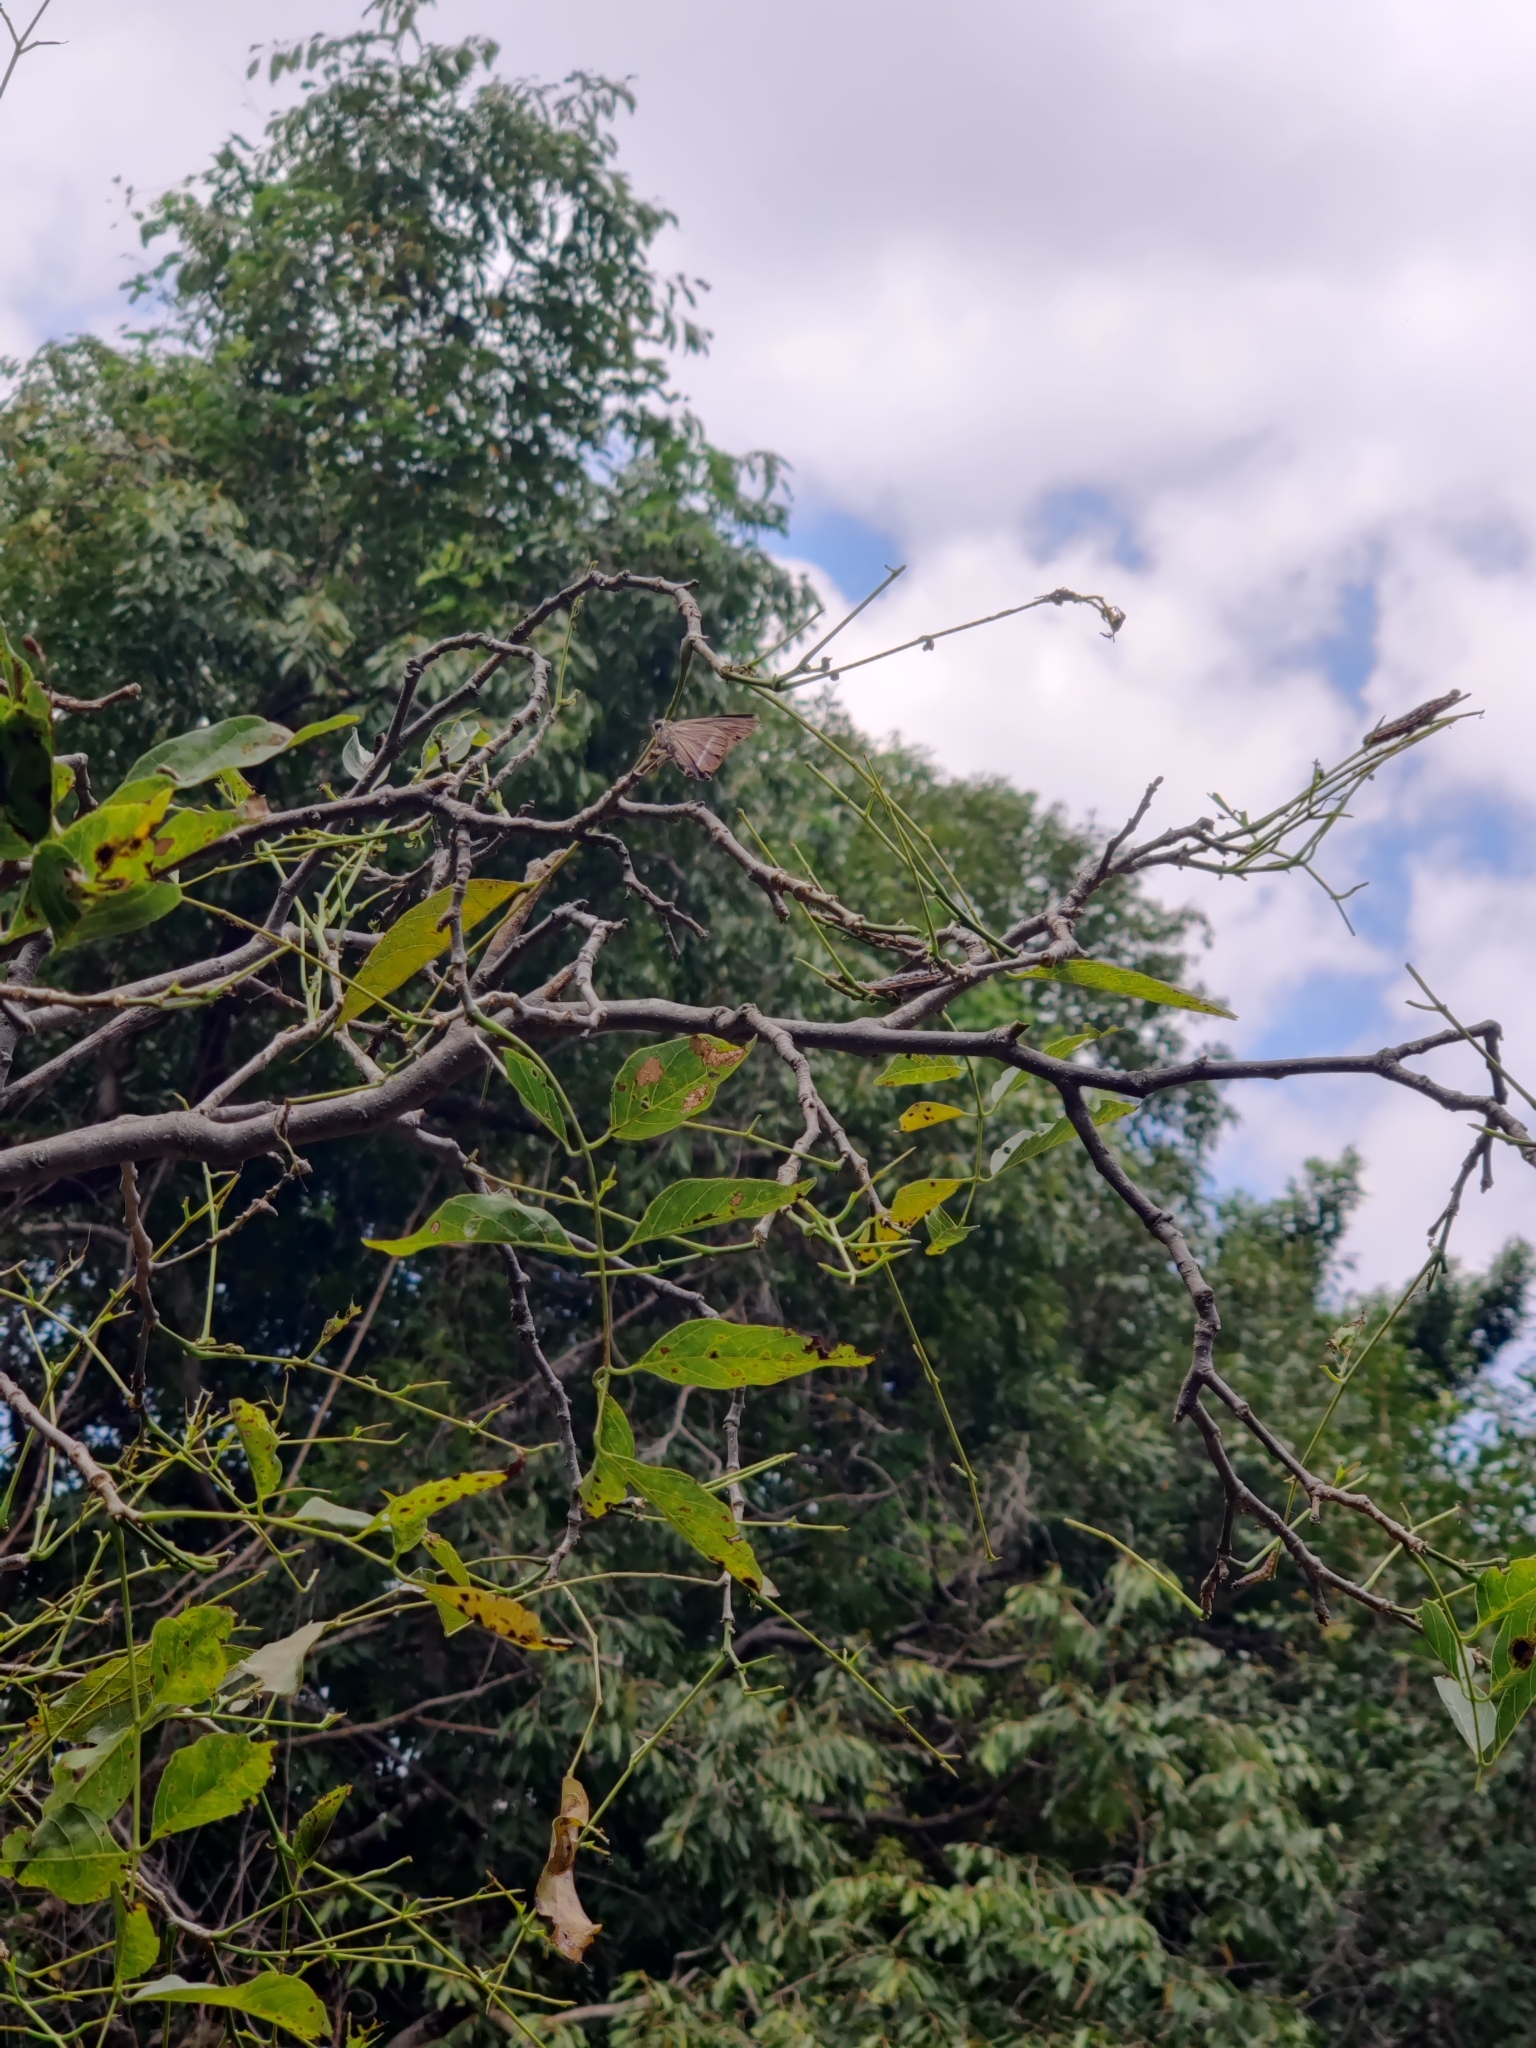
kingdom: Animalia
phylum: Arthropoda
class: Insecta
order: Lepidoptera
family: Hesperiidae
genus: Hasora
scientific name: Hasora chromus
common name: Common banded awl
